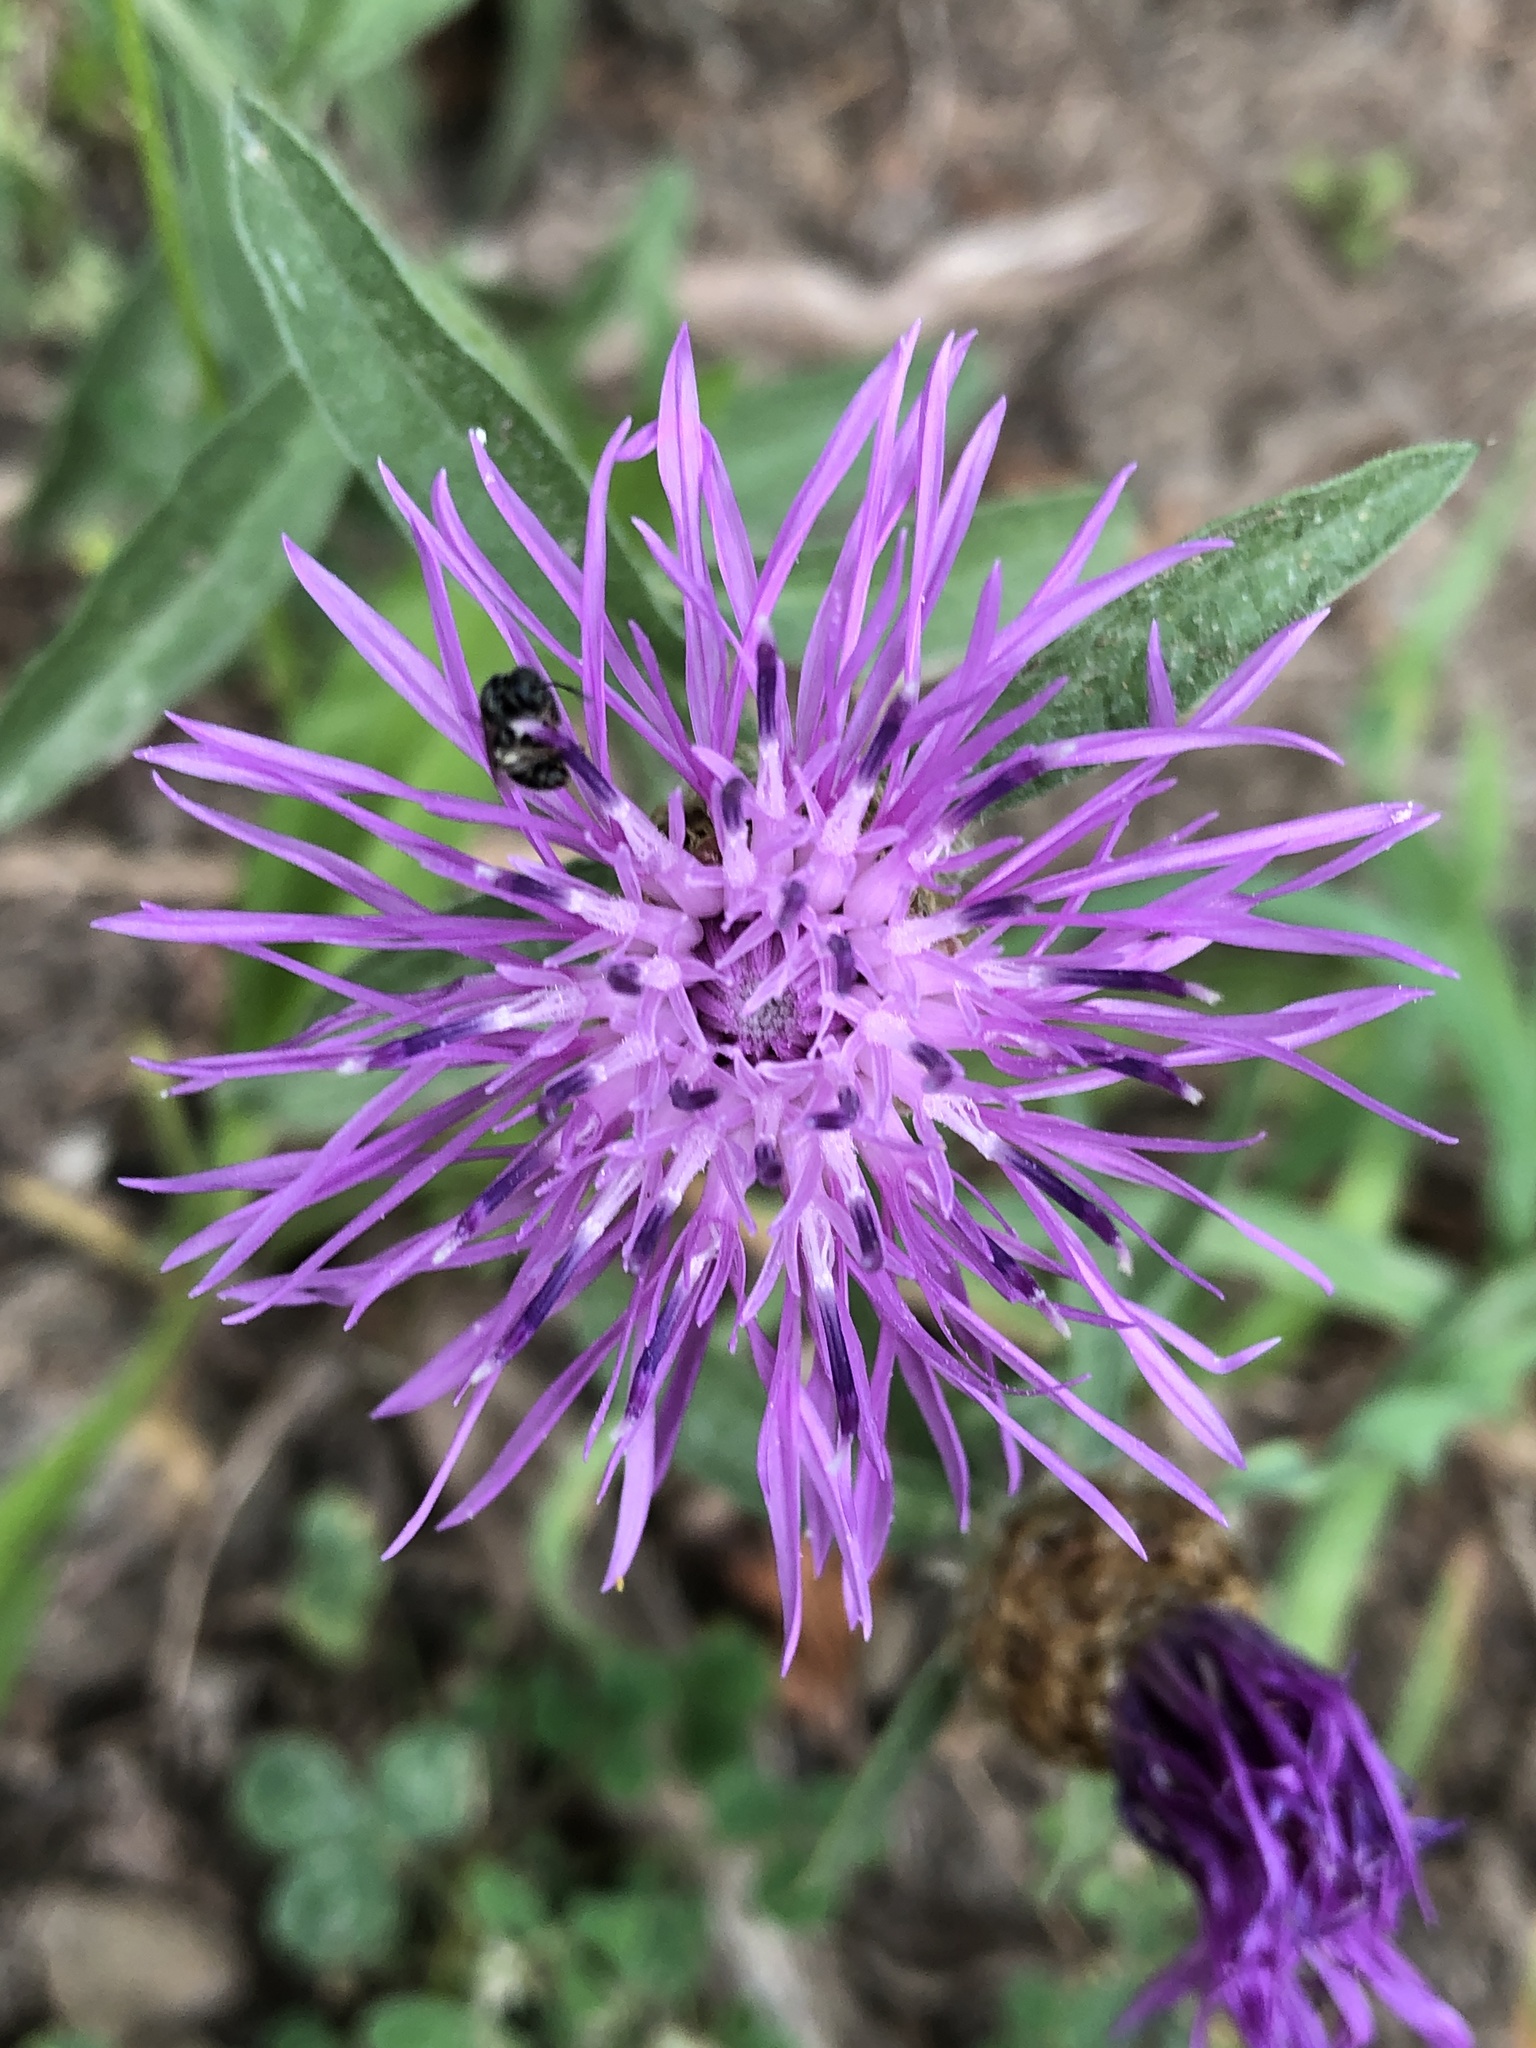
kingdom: Plantae
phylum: Tracheophyta
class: Magnoliopsida
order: Asterales
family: Asteraceae
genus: Centaurea
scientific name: Centaurea moncktonii
